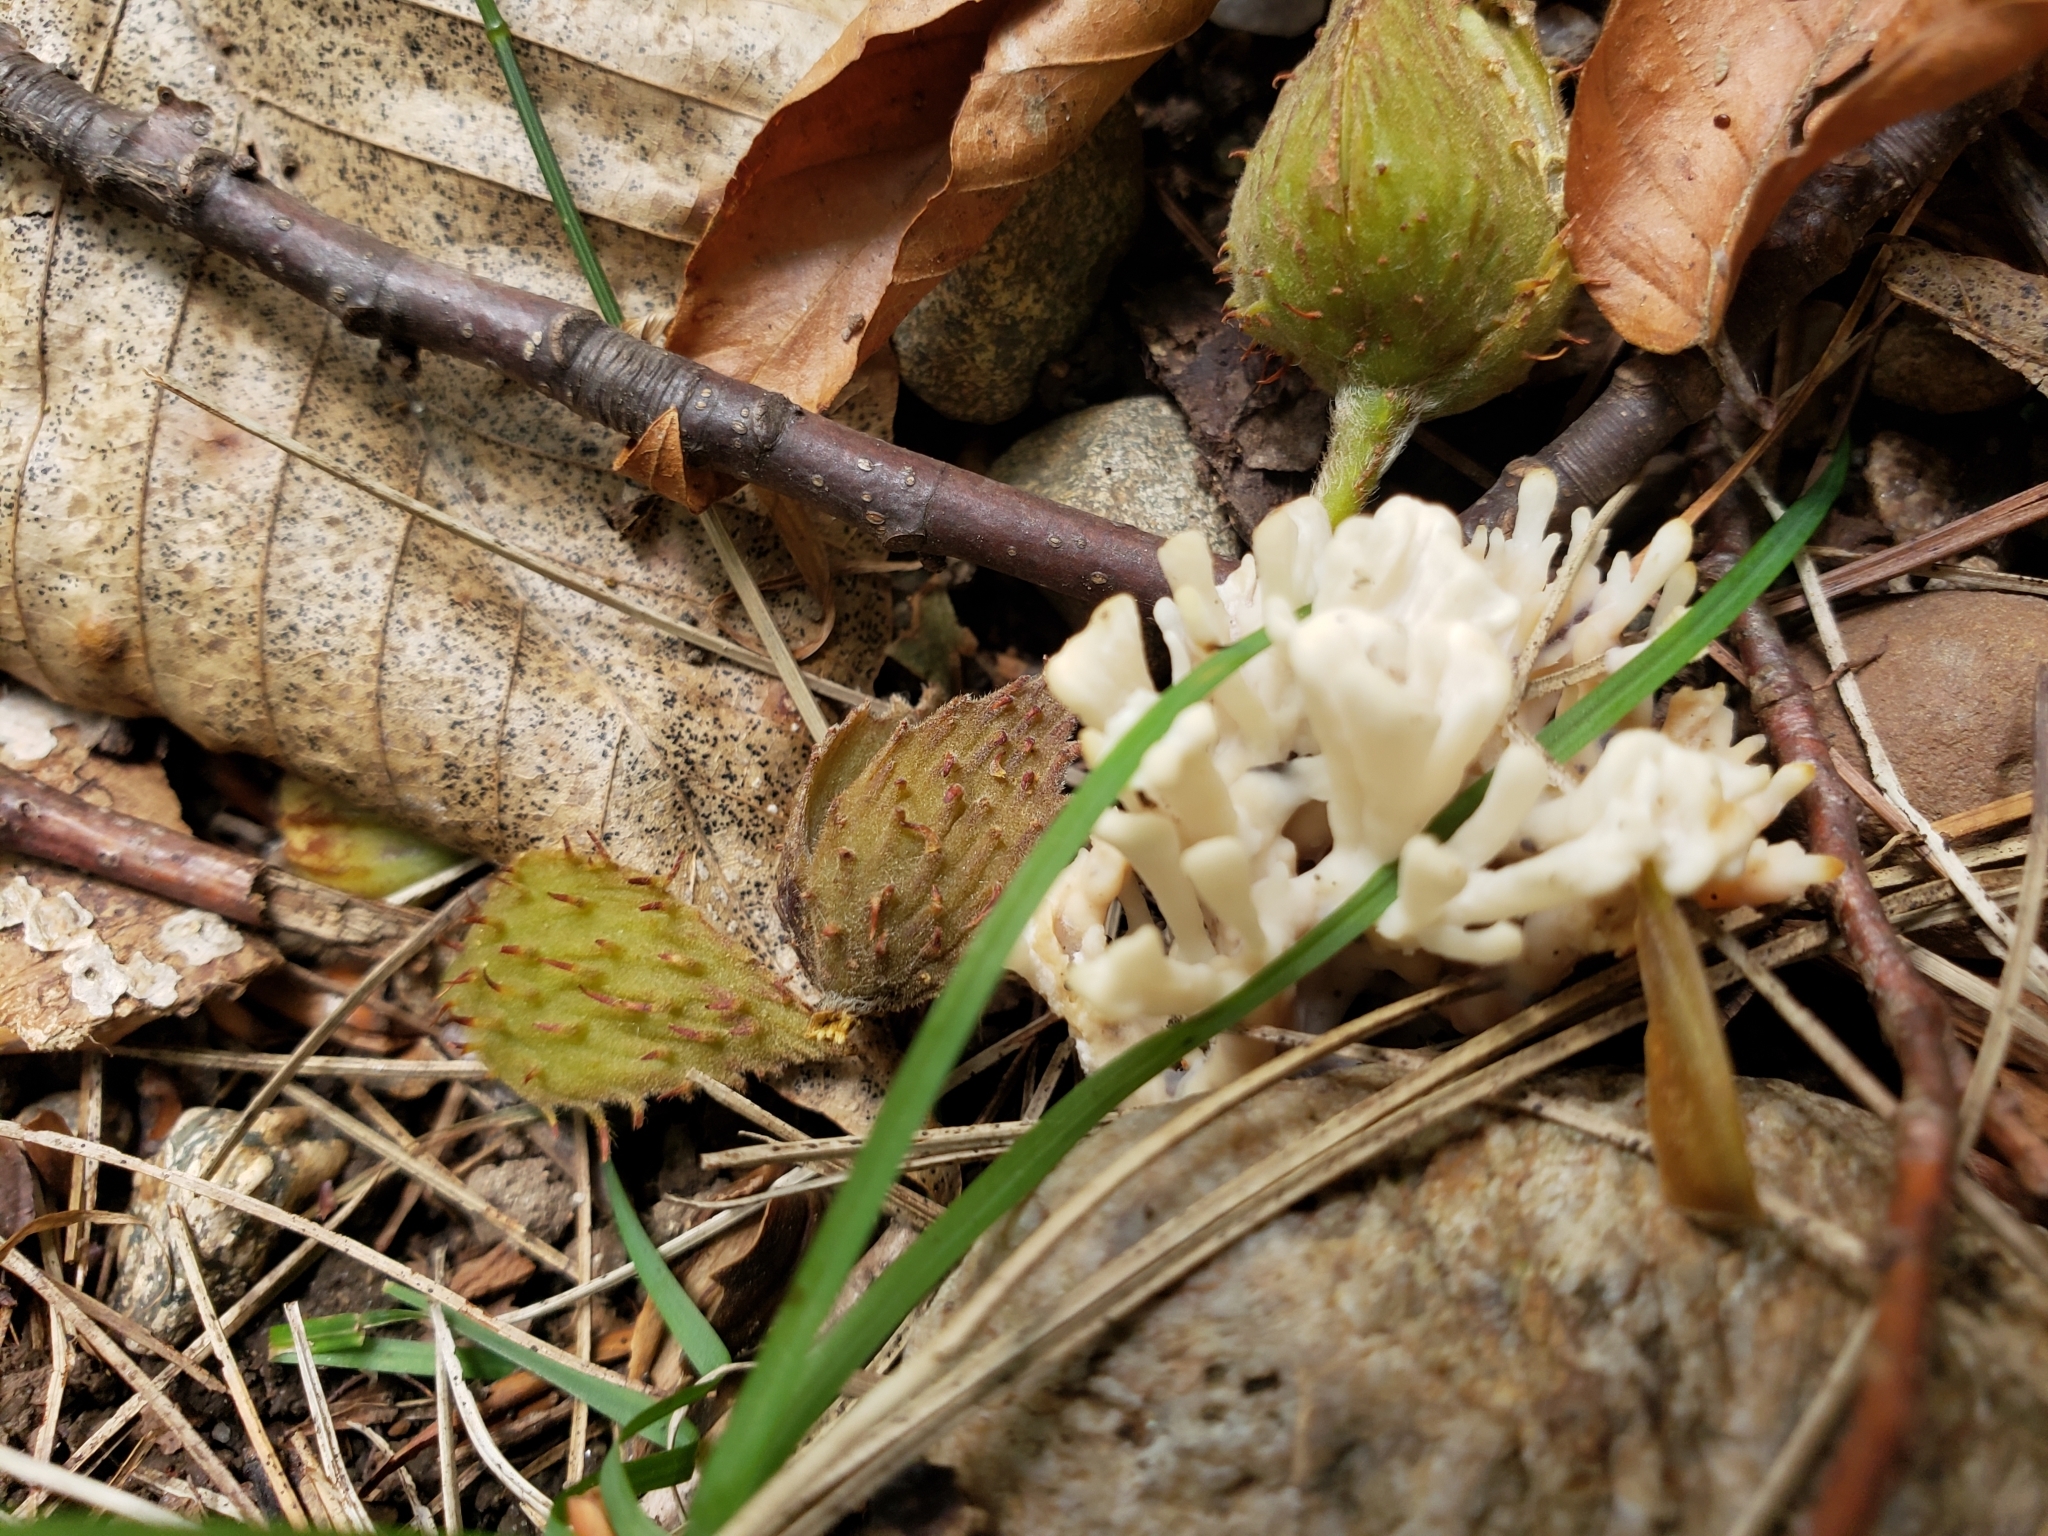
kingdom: Fungi
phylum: Basidiomycota
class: Agaricomycetes
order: Sebacinales
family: Sebacinaceae
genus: Sebacina
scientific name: Sebacina schweinitzii
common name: Jellied false coral fungus
